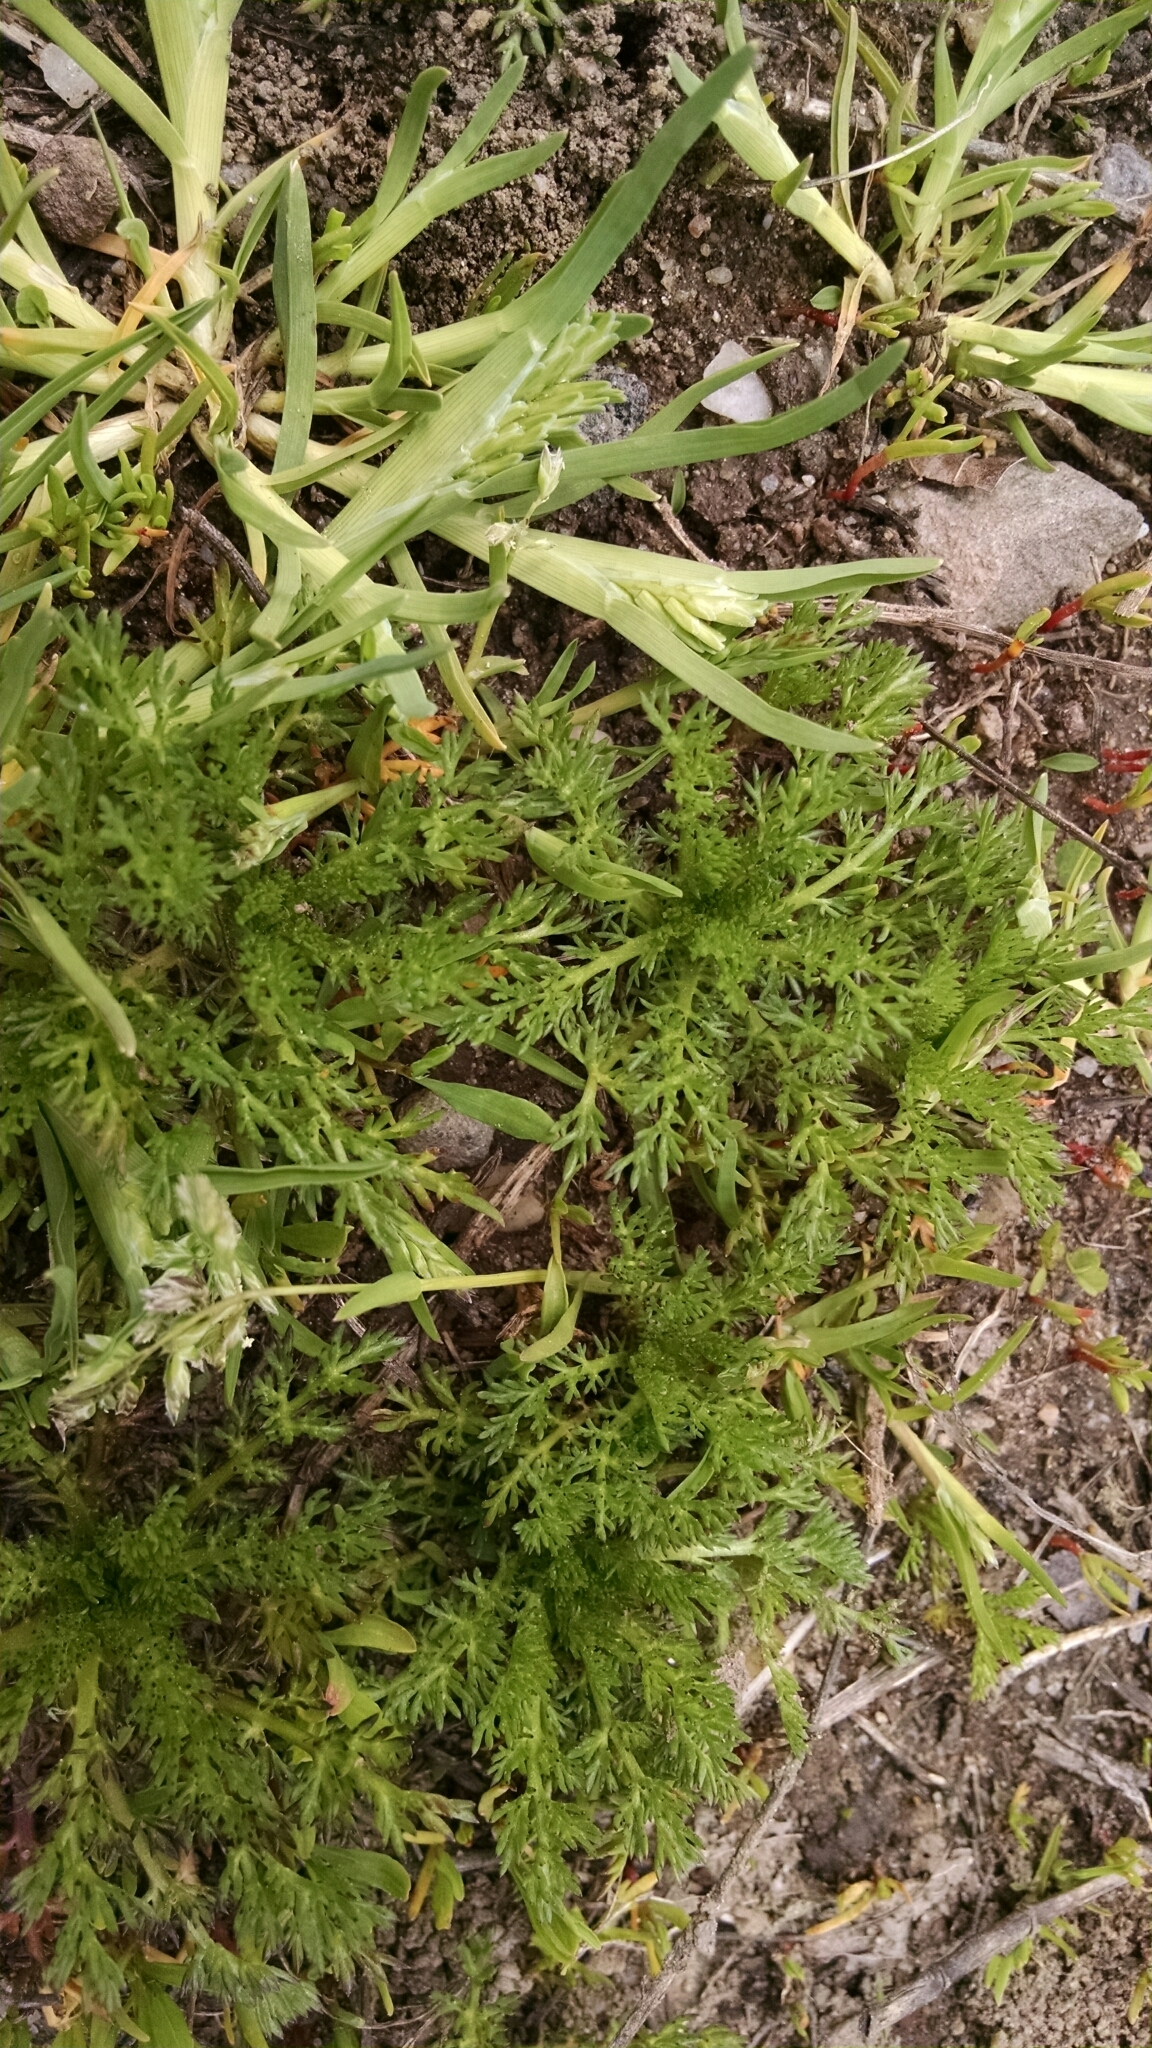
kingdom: Plantae
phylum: Tracheophyta
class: Magnoliopsida
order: Asterales
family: Asteraceae
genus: Matricaria
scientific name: Matricaria discoidea
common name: Disc mayweed
